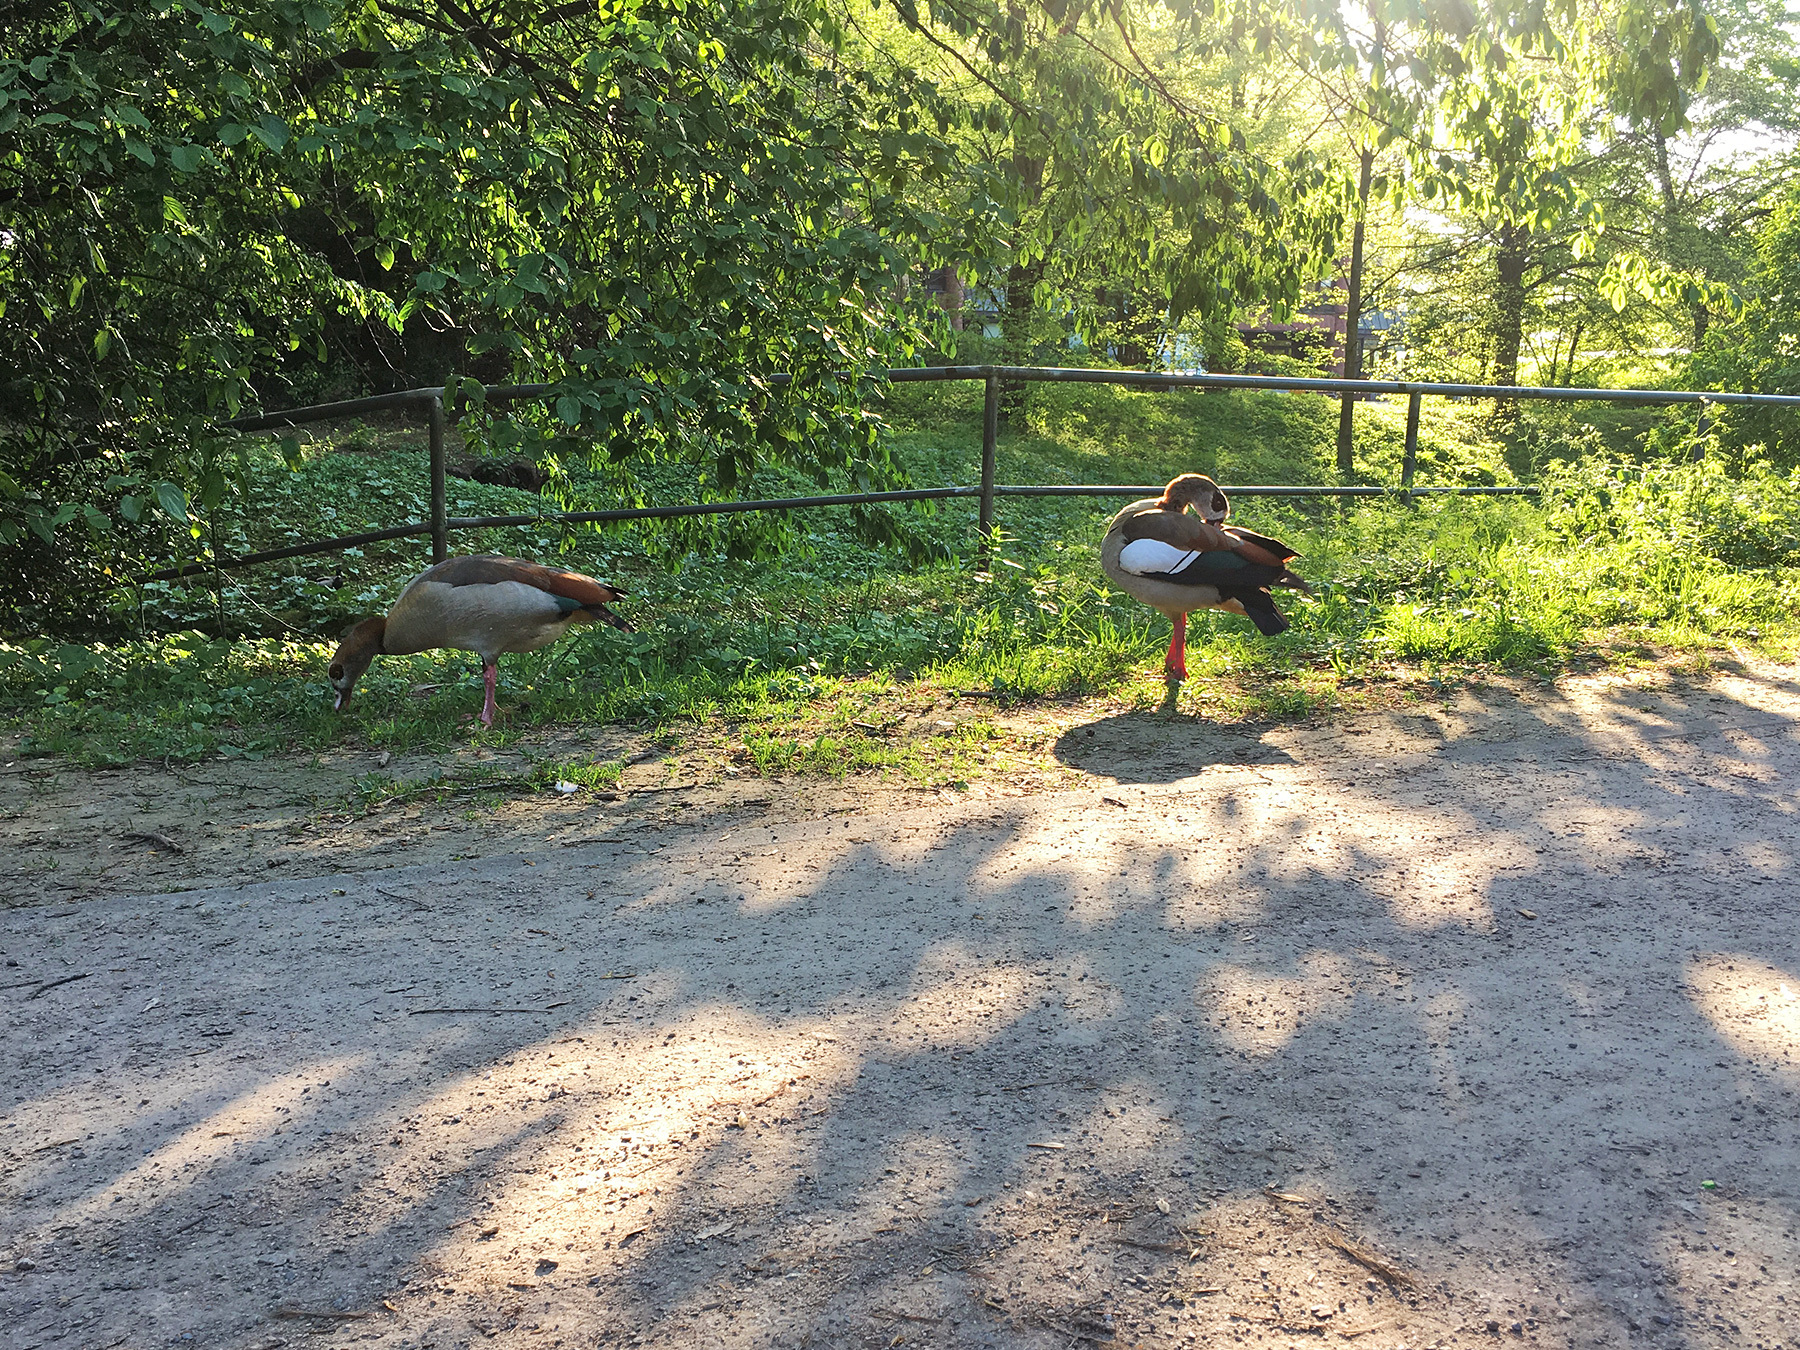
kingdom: Animalia
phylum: Chordata
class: Aves
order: Anseriformes
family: Anatidae
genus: Alopochen
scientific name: Alopochen aegyptiaca
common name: Egyptian goose
